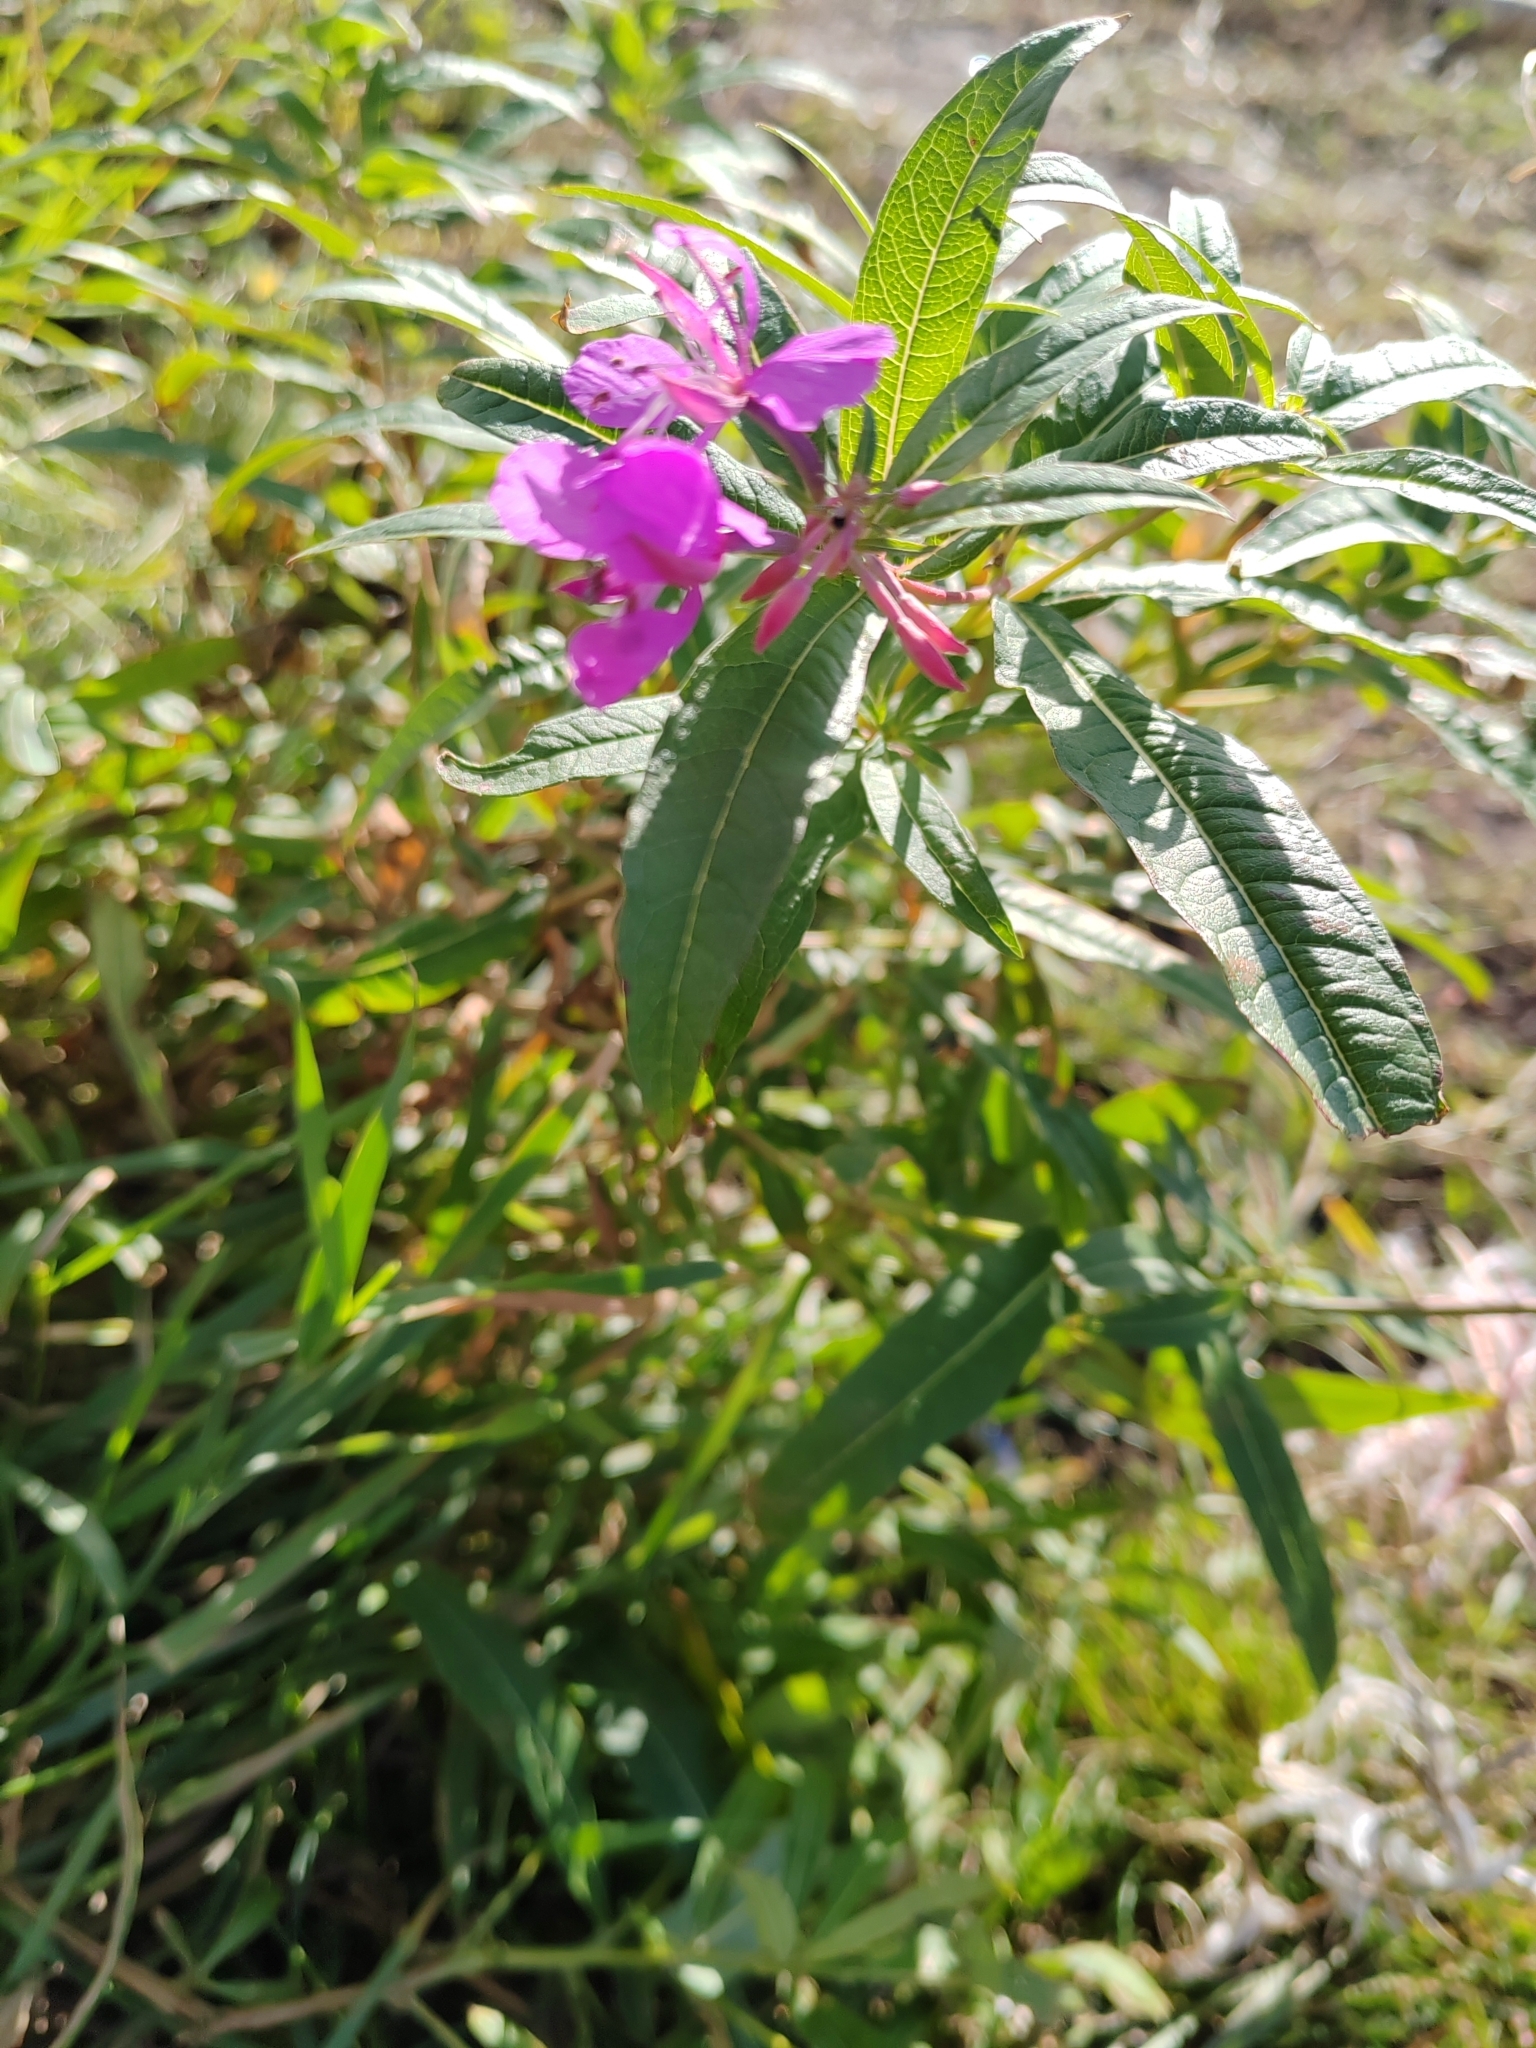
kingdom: Plantae
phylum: Tracheophyta
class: Magnoliopsida
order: Myrtales
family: Onagraceae
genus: Chamaenerion
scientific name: Chamaenerion angustifolium
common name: Fireweed
